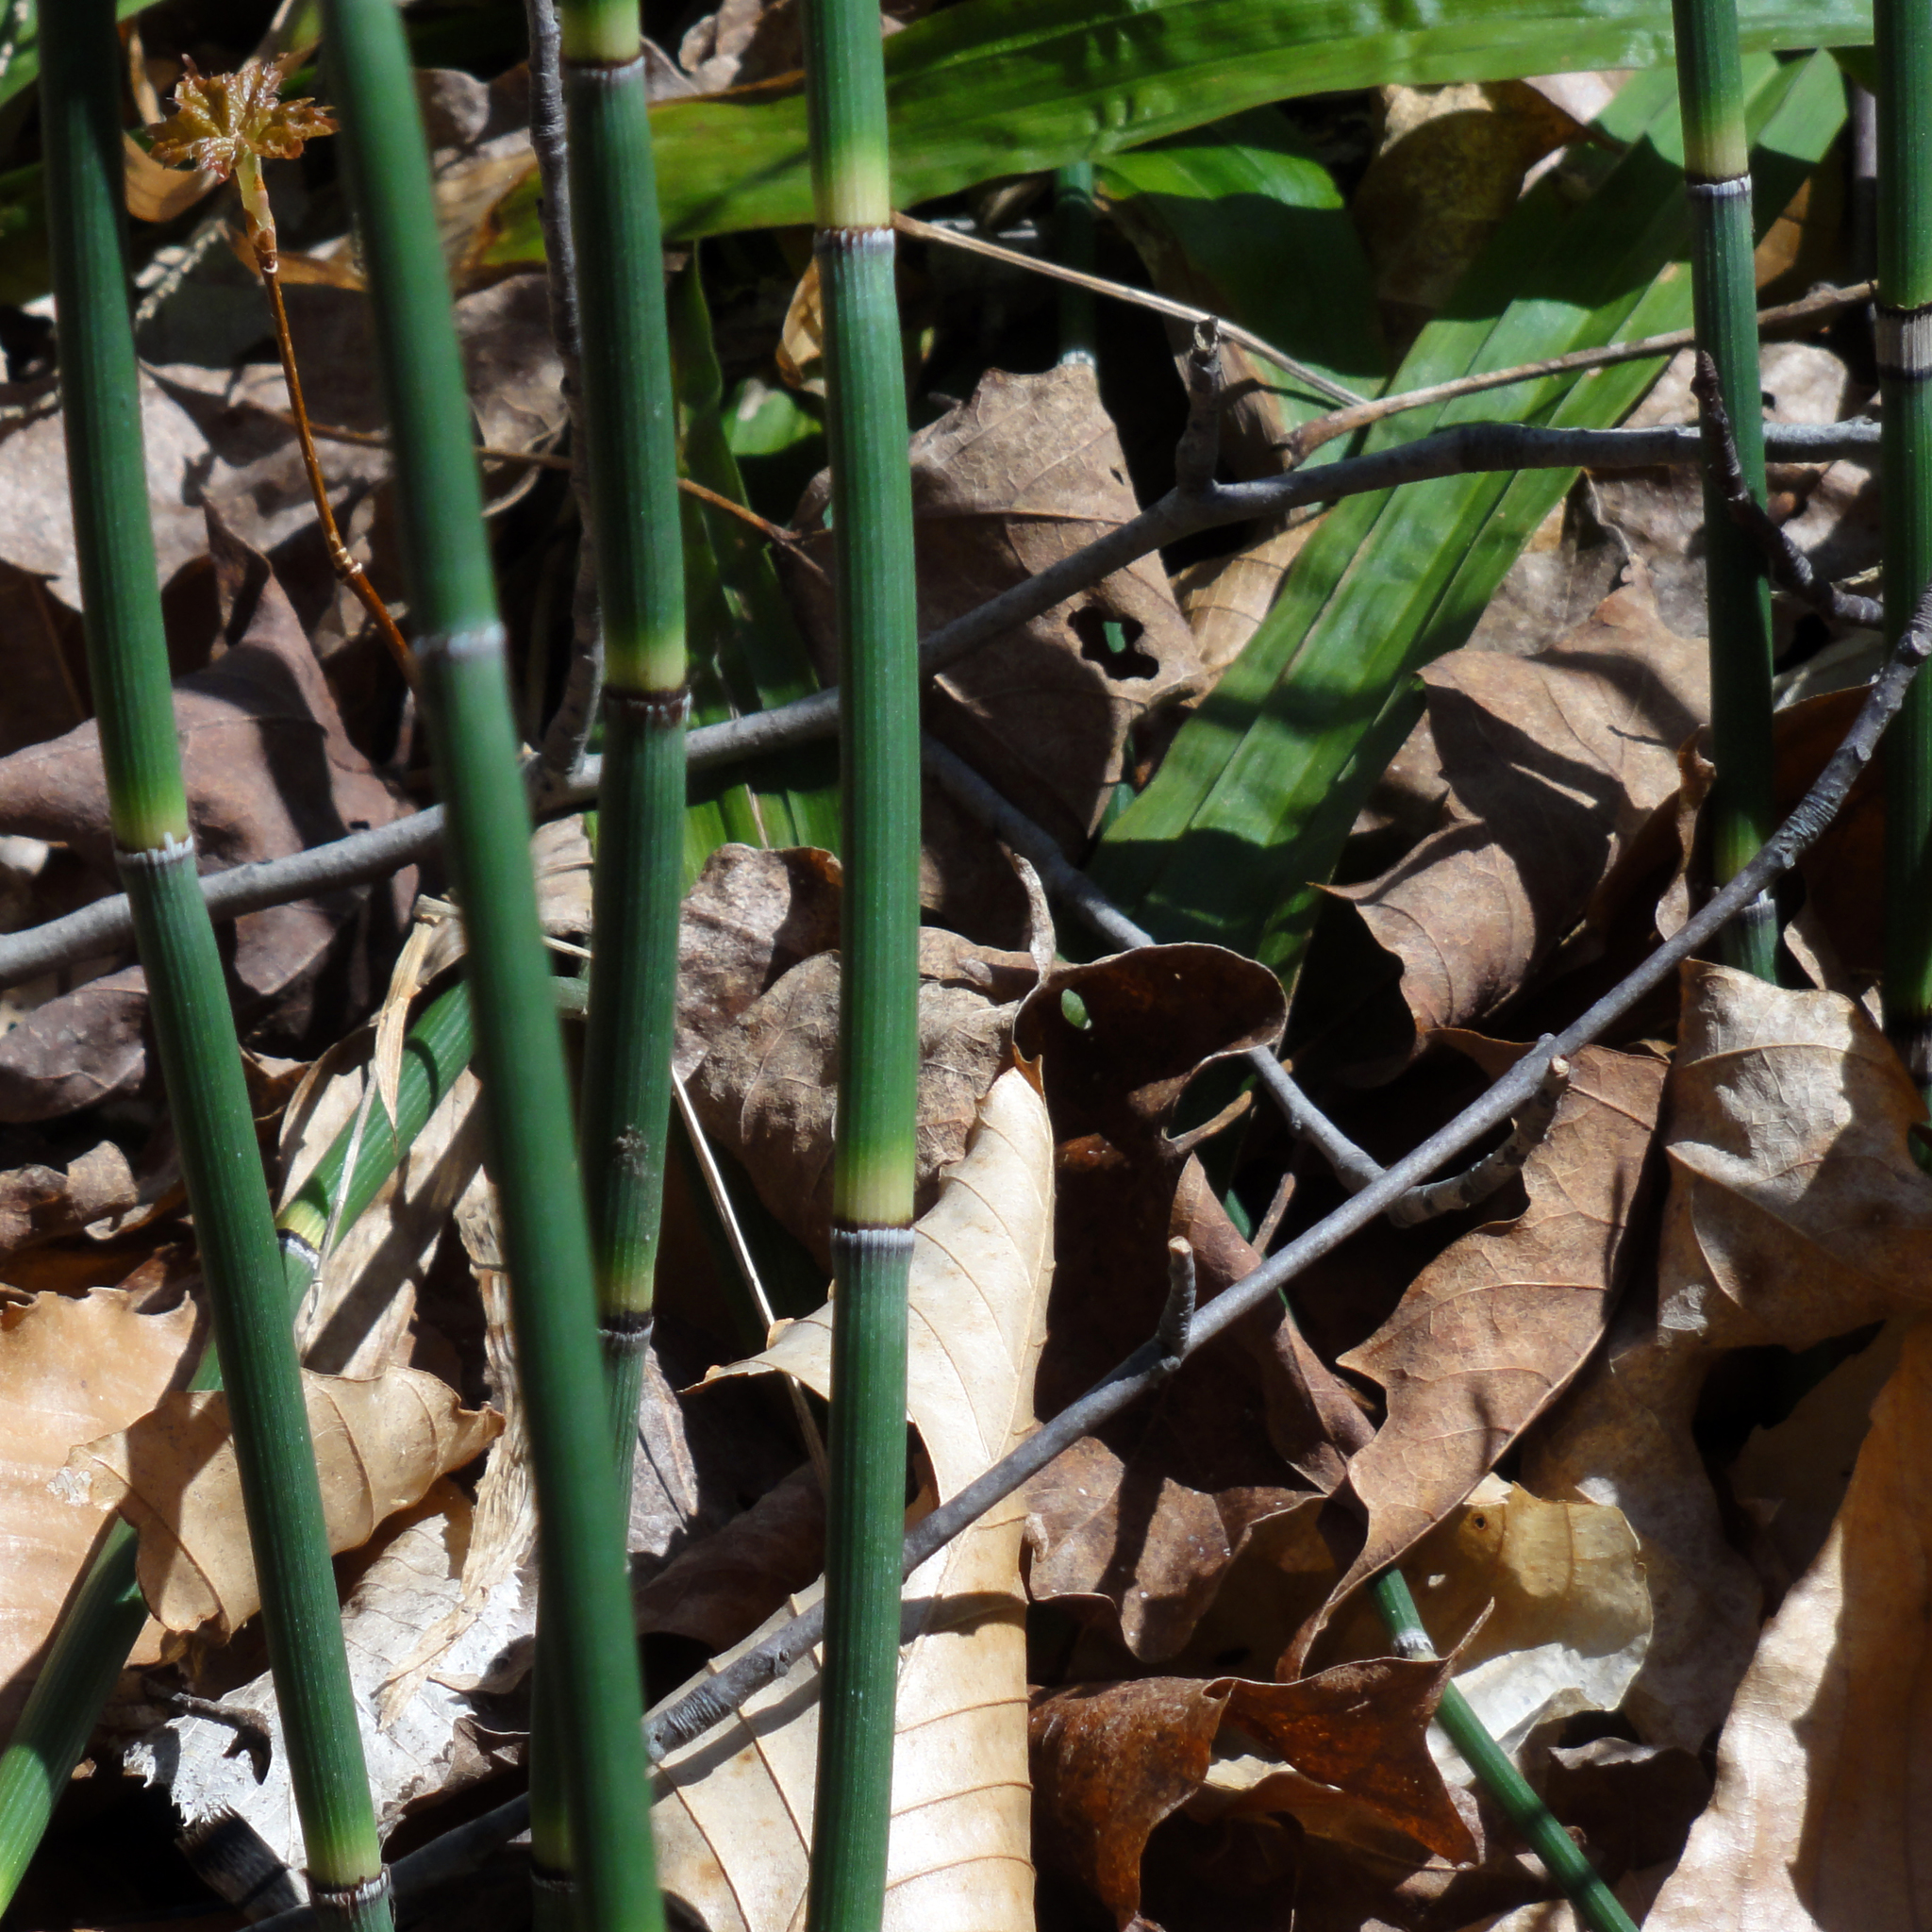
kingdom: Plantae
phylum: Tracheophyta
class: Polypodiopsida
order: Equisetales
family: Equisetaceae
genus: Equisetum
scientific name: Equisetum praealtum
